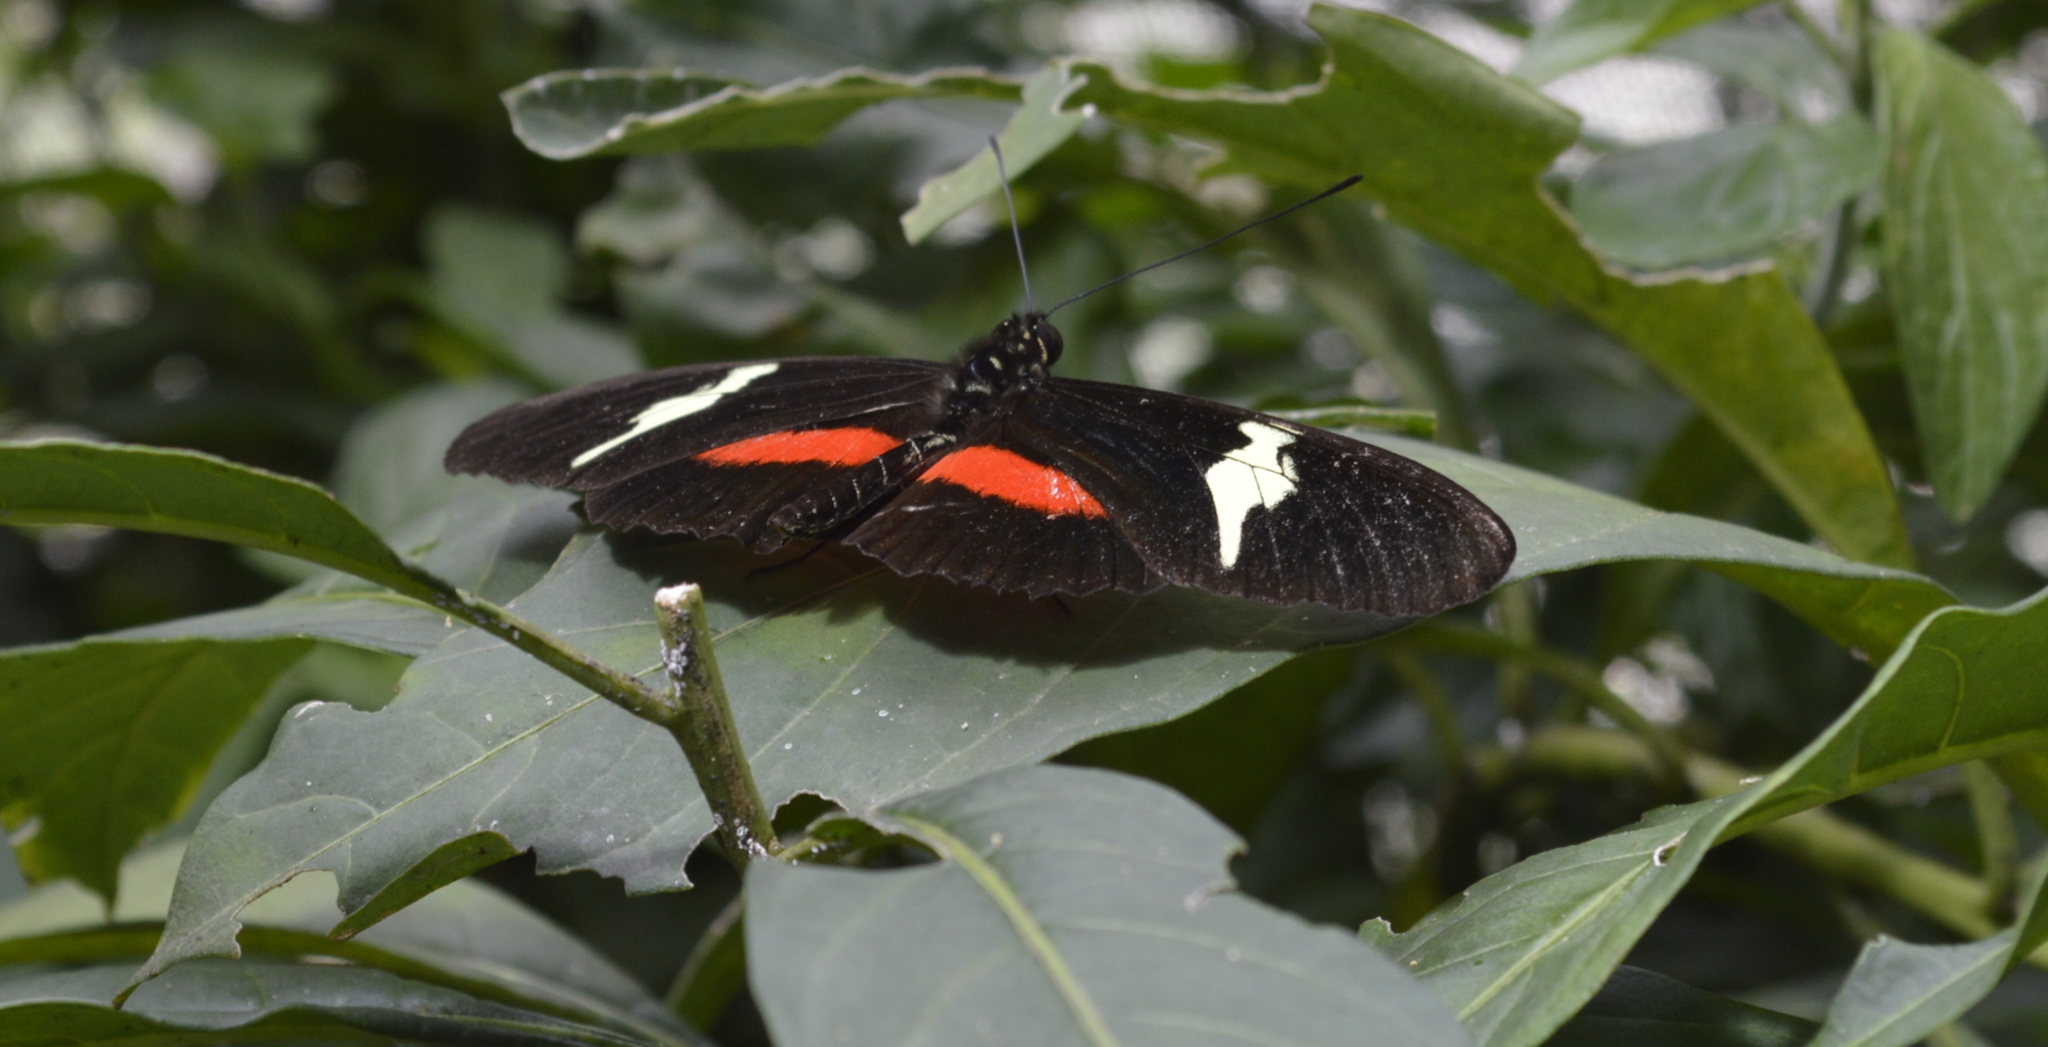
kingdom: Animalia
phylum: Arthropoda
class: Insecta
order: Lepidoptera
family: Nymphalidae
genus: Heliconius
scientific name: Heliconius clysonymus
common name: Clysonymus longwing
